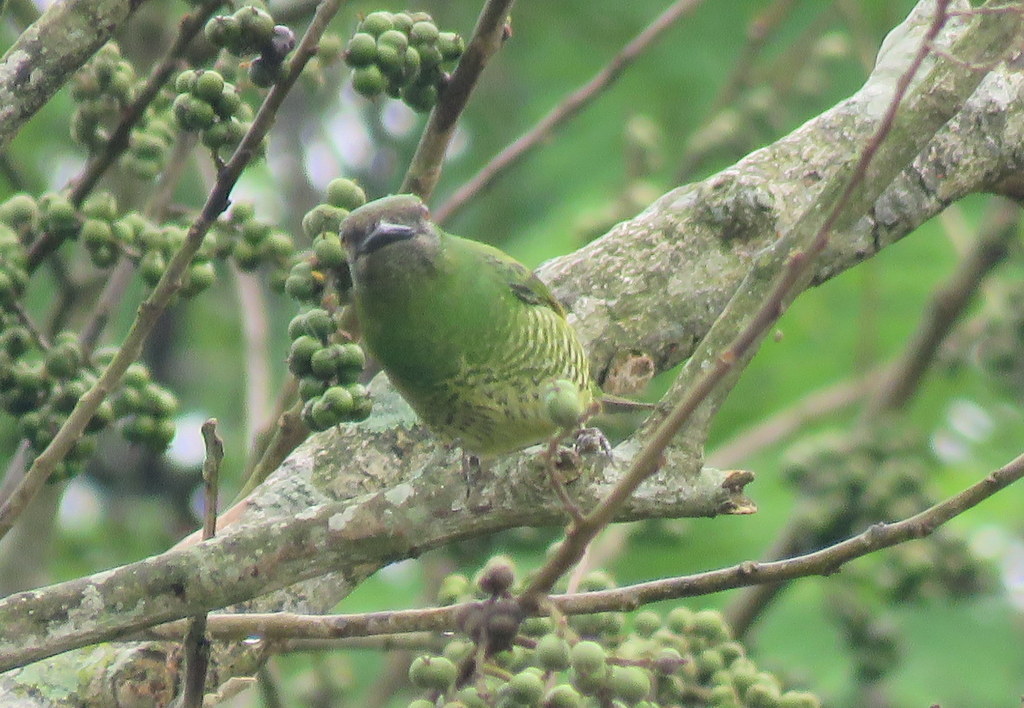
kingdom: Animalia
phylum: Chordata
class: Aves
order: Passeriformes
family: Thraupidae
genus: Tersina
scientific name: Tersina viridis
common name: Swallow tanager
